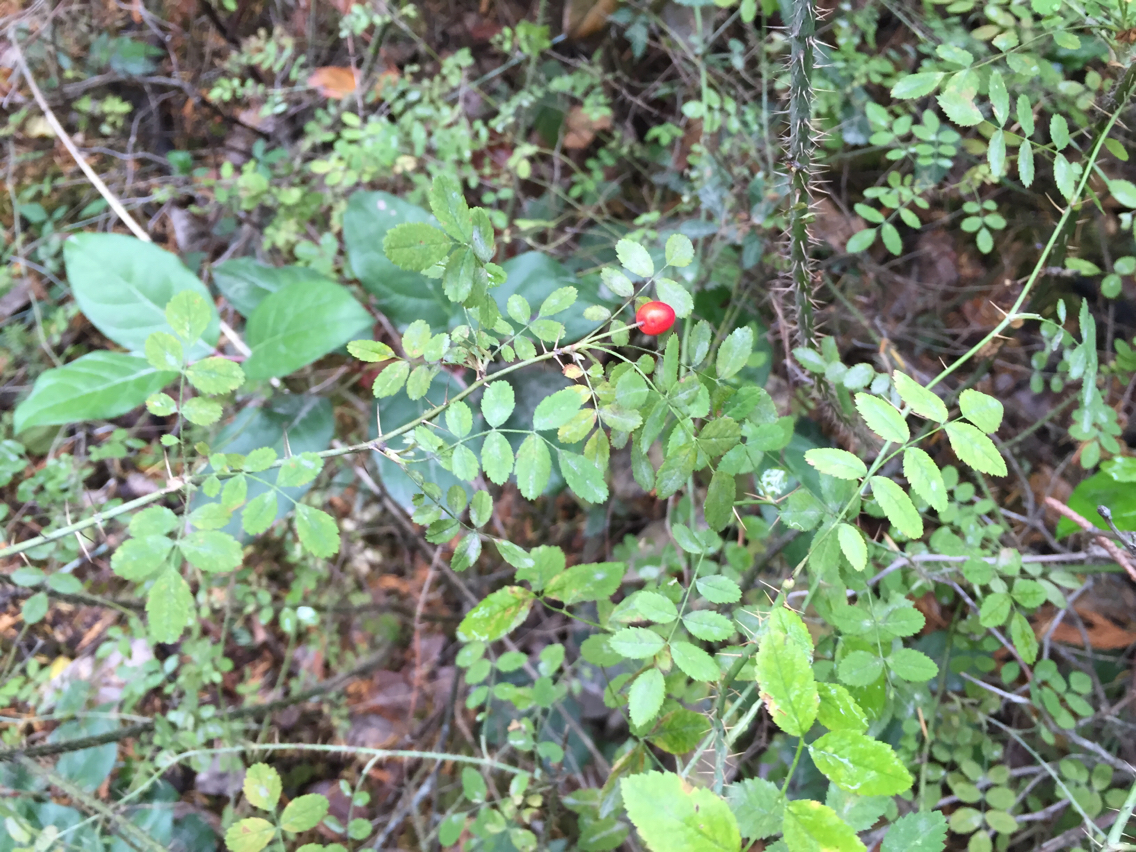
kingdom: Plantae
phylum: Tracheophyta
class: Magnoliopsida
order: Rosales
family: Rosaceae
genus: Rosa
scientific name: Rosa gymnocarpa
